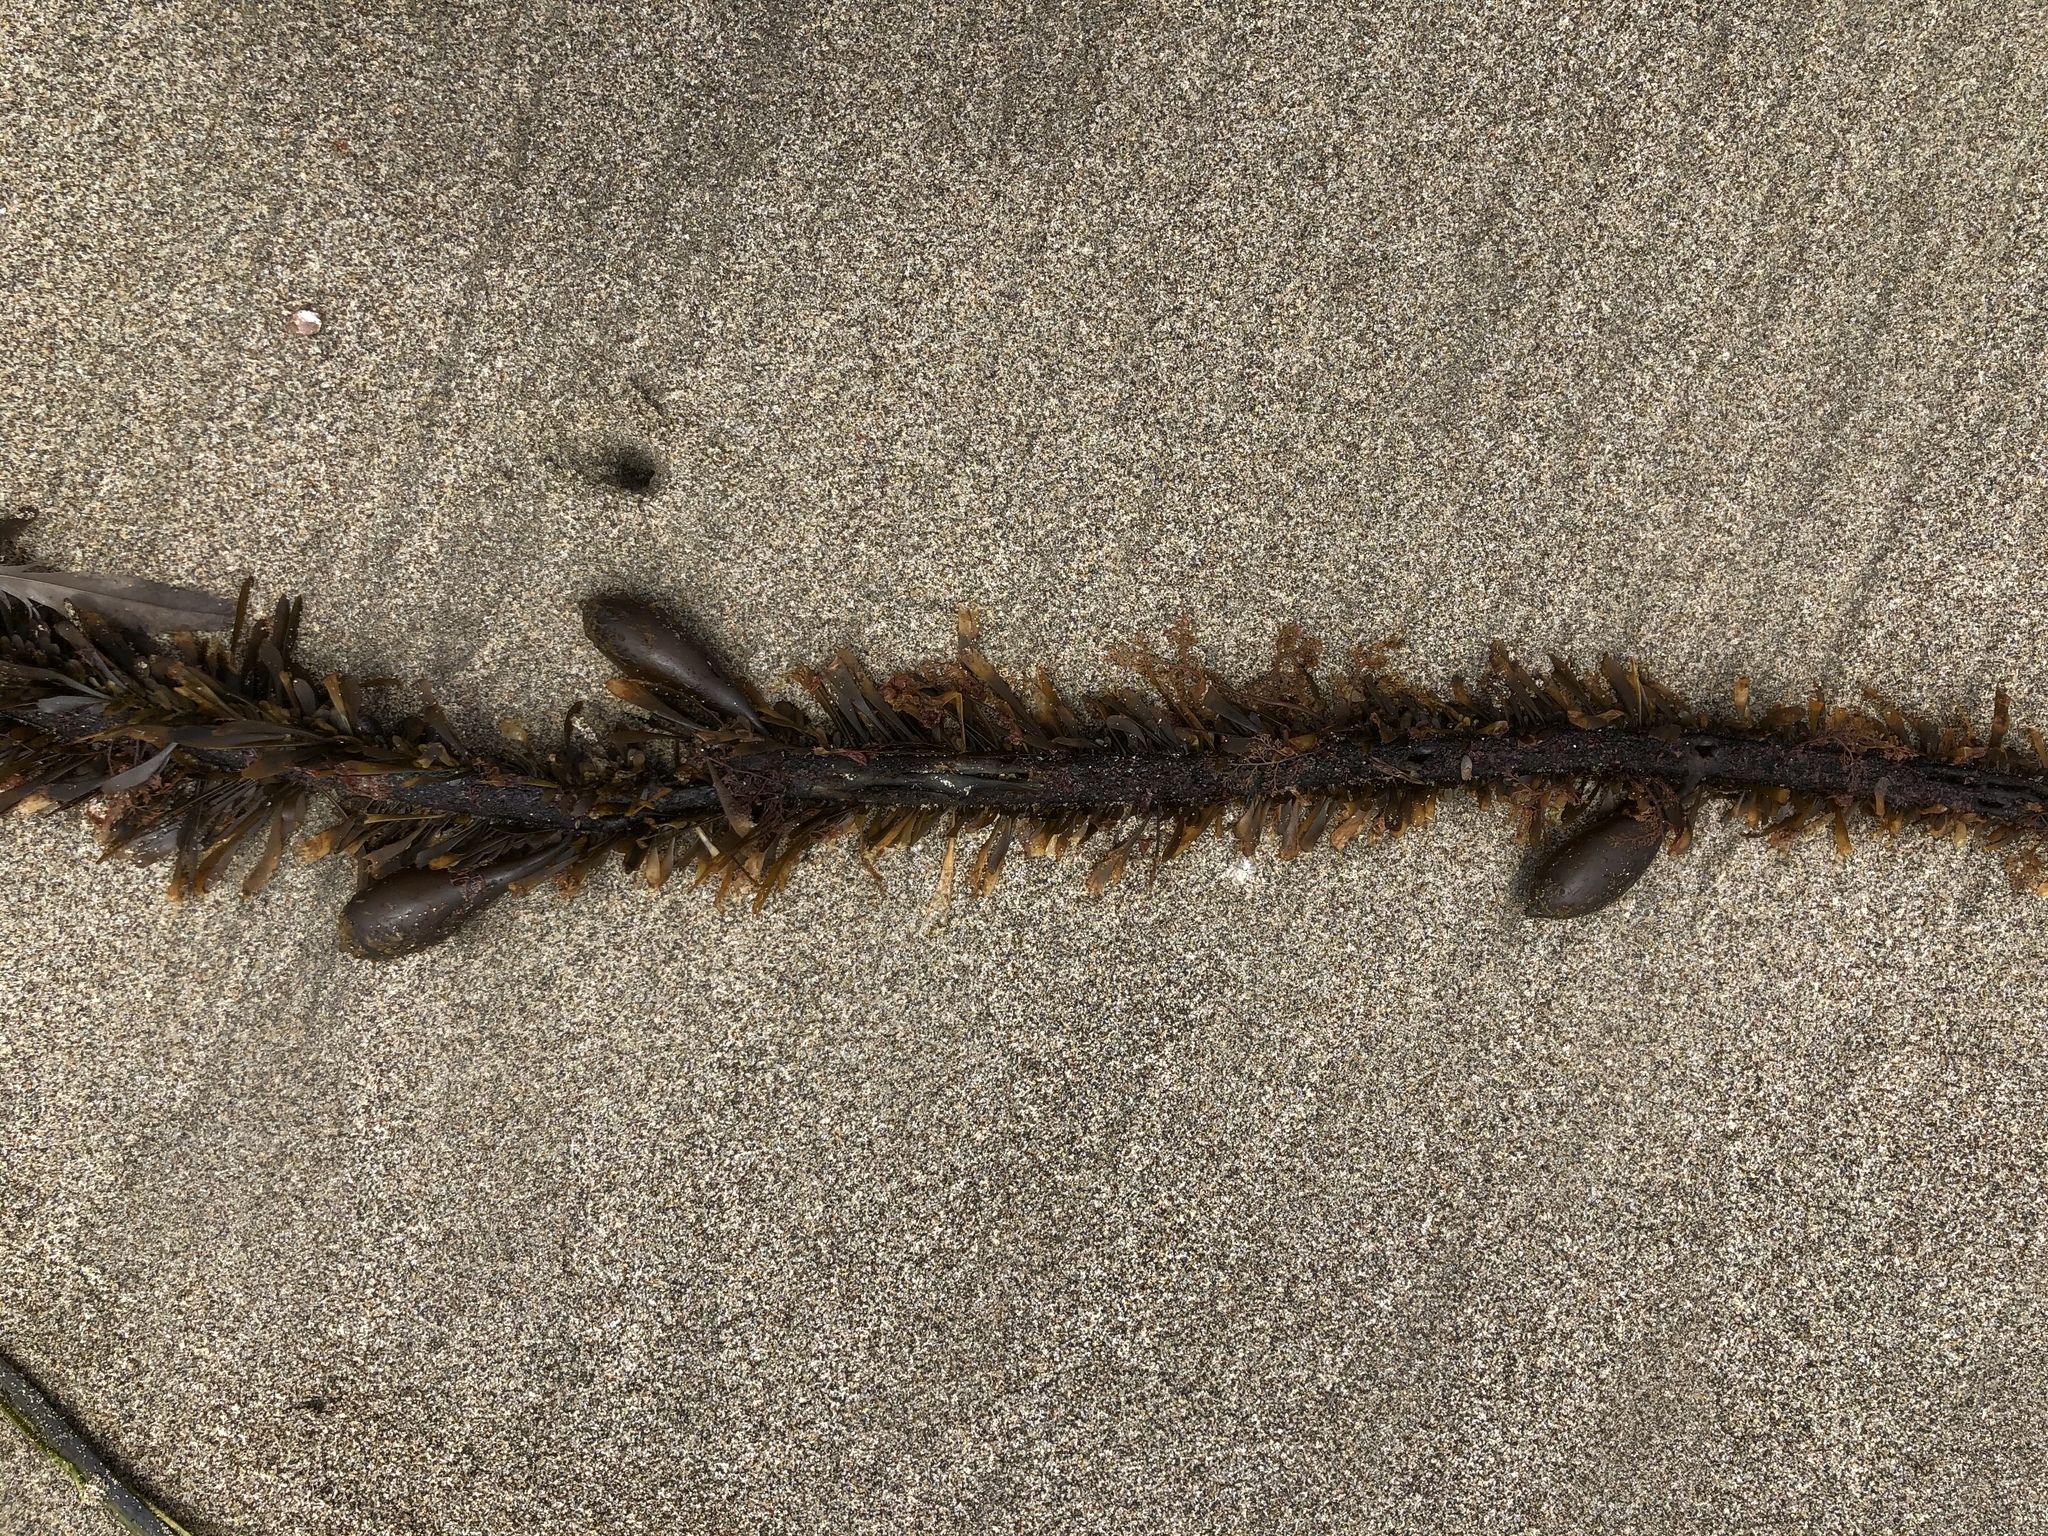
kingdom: Chromista
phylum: Ochrophyta
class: Phaeophyceae
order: Laminariales
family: Lessoniaceae
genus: Egregia
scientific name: Egregia menziesii
